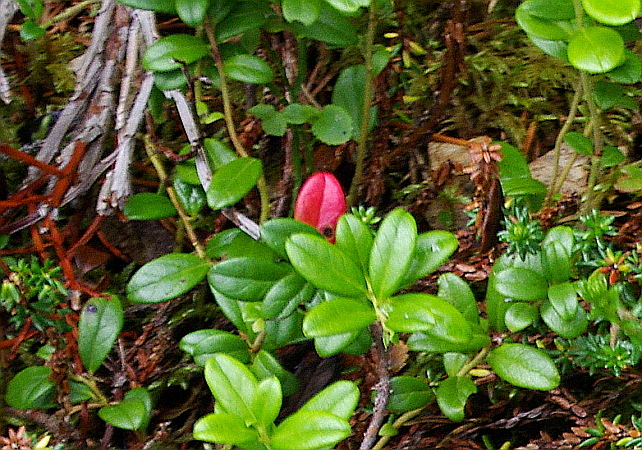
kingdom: Plantae
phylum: Tracheophyta
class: Magnoliopsida
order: Ericales
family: Ericaceae
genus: Vaccinium
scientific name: Vaccinium vitis-idaea
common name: Cowberry
